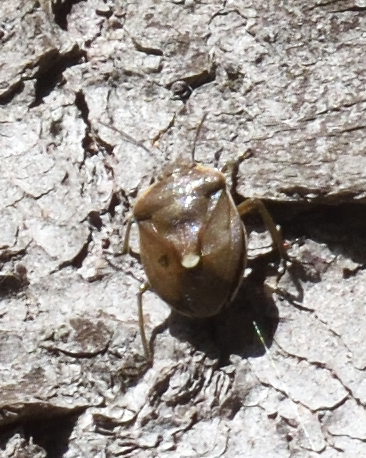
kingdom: Animalia
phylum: Arthropoda
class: Insecta
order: Hemiptera
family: Pentatomidae
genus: Chlorochroa
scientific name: Chlorochroa pinicola
